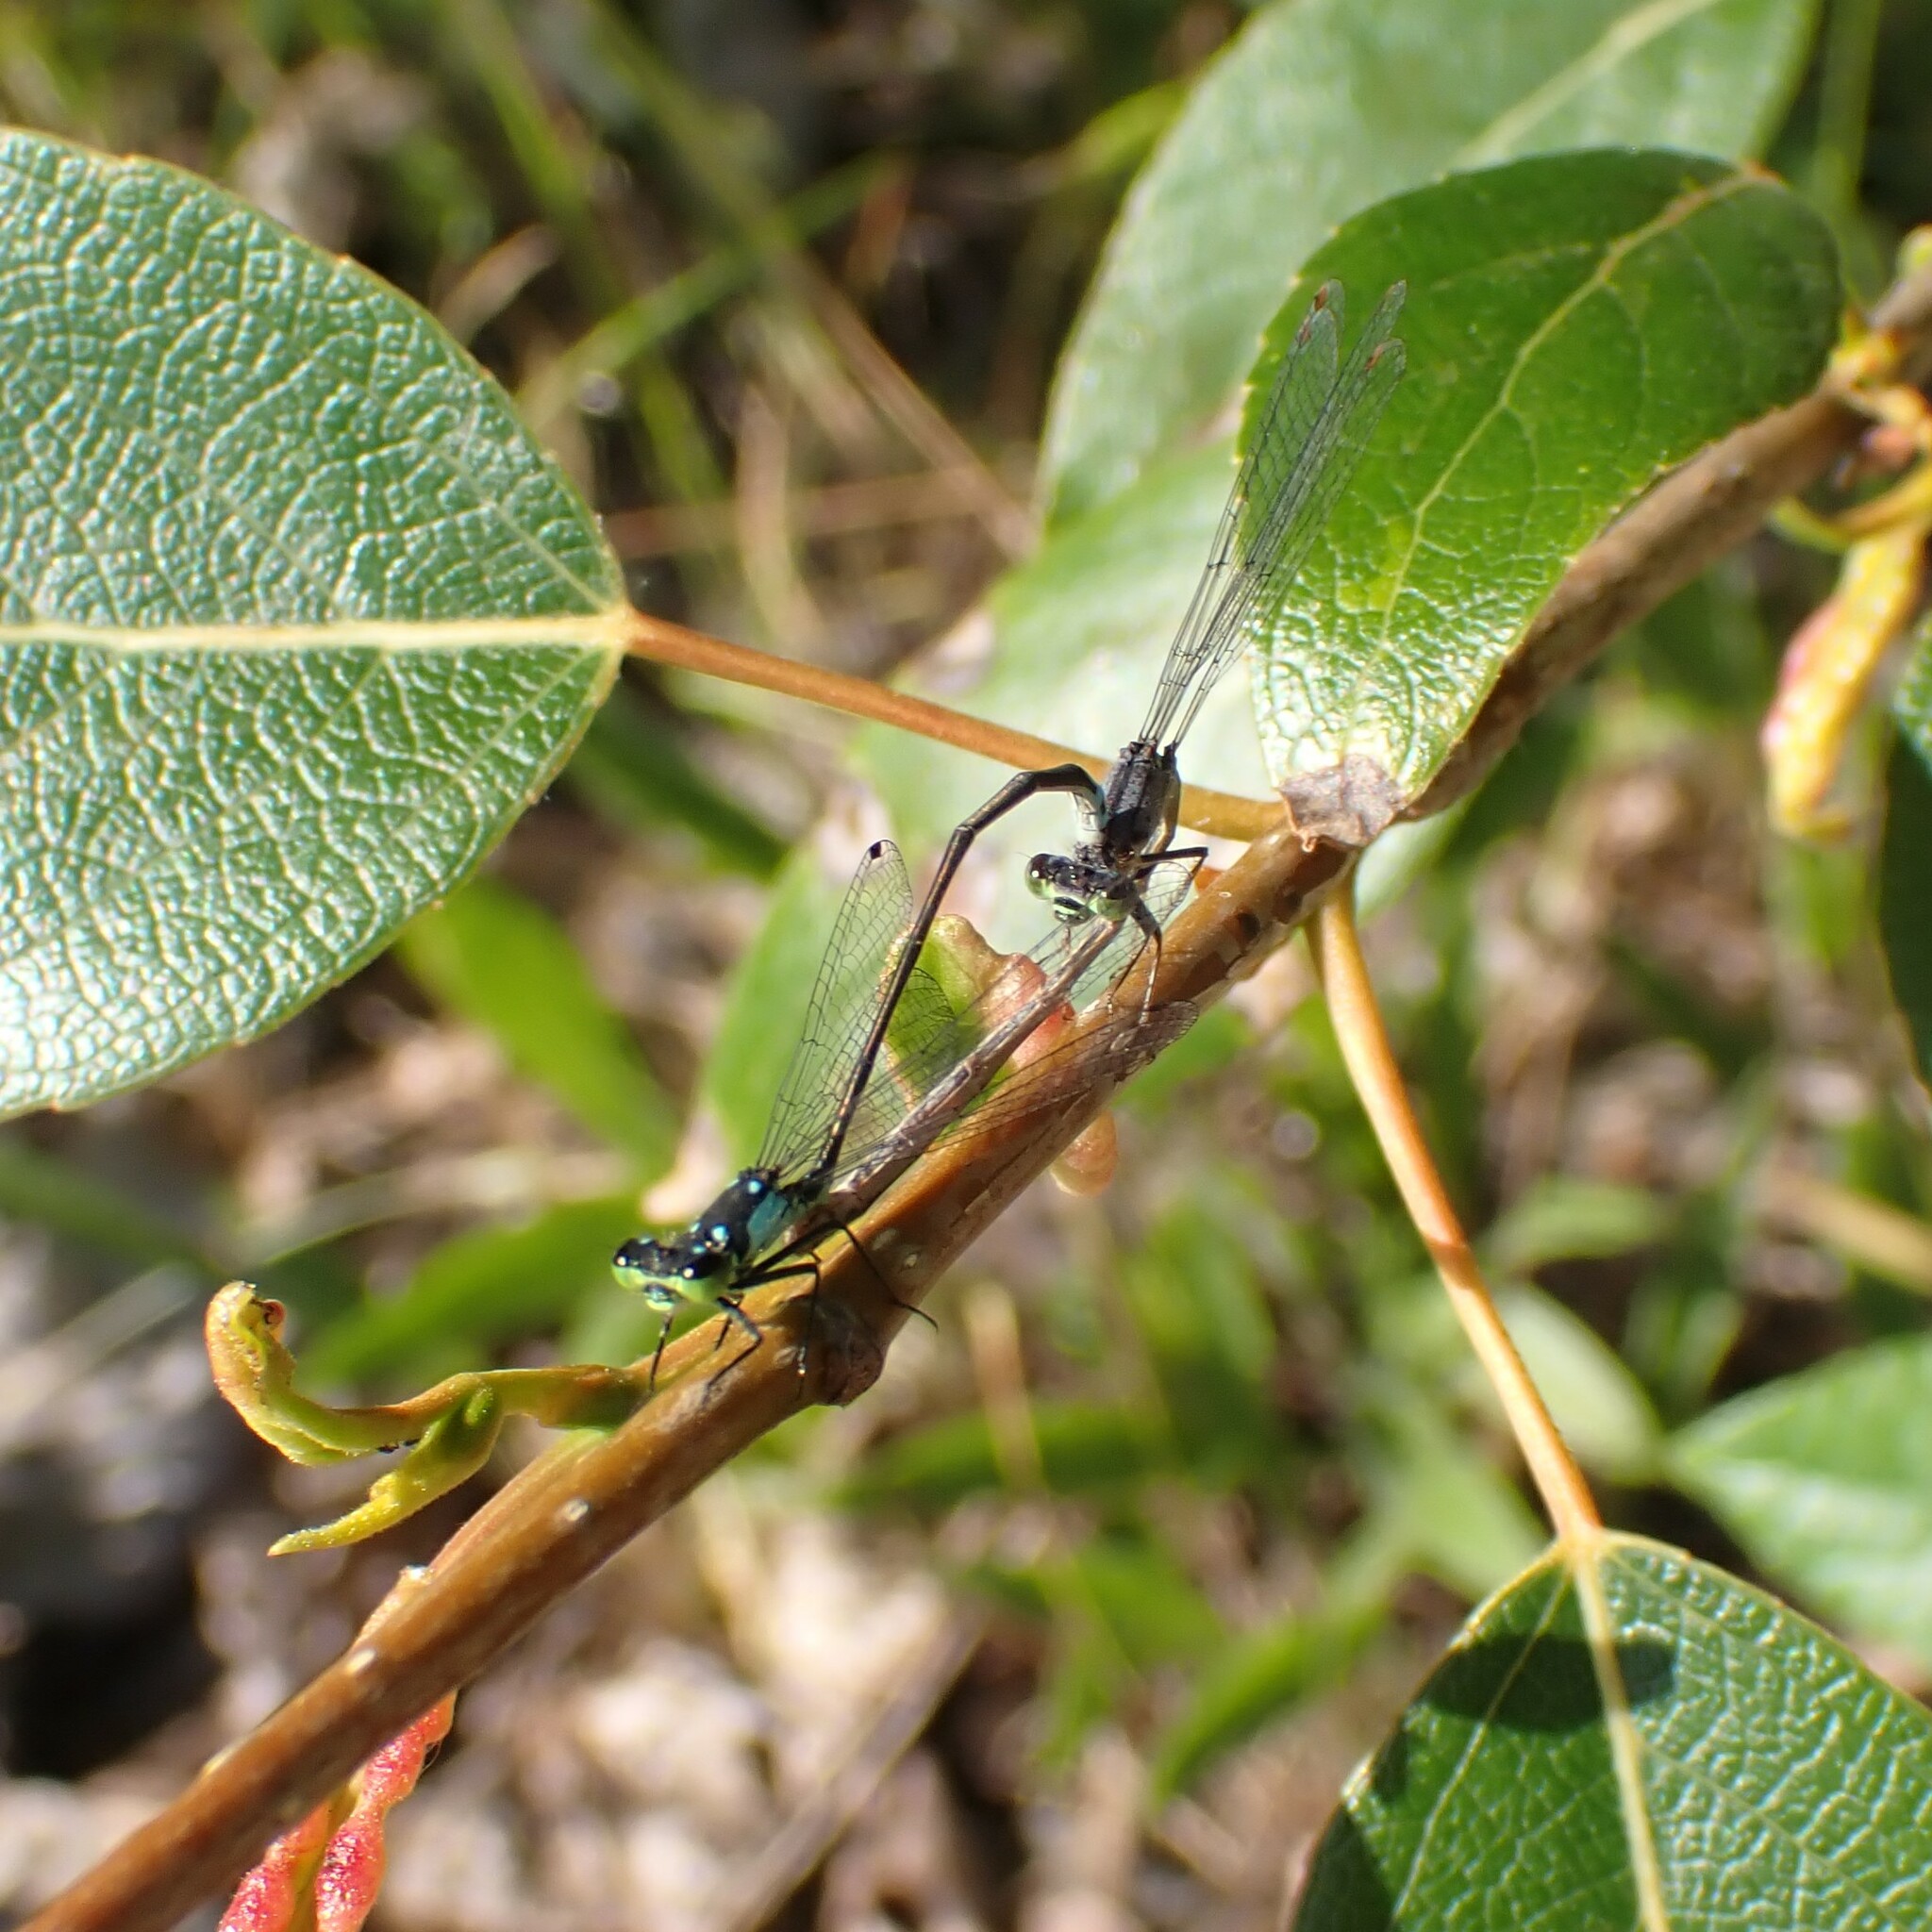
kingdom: Animalia
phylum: Arthropoda
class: Insecta
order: Odonata
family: Coenagrionidae
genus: Ischnura
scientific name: Ischnura cervula
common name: Pacific forktail
